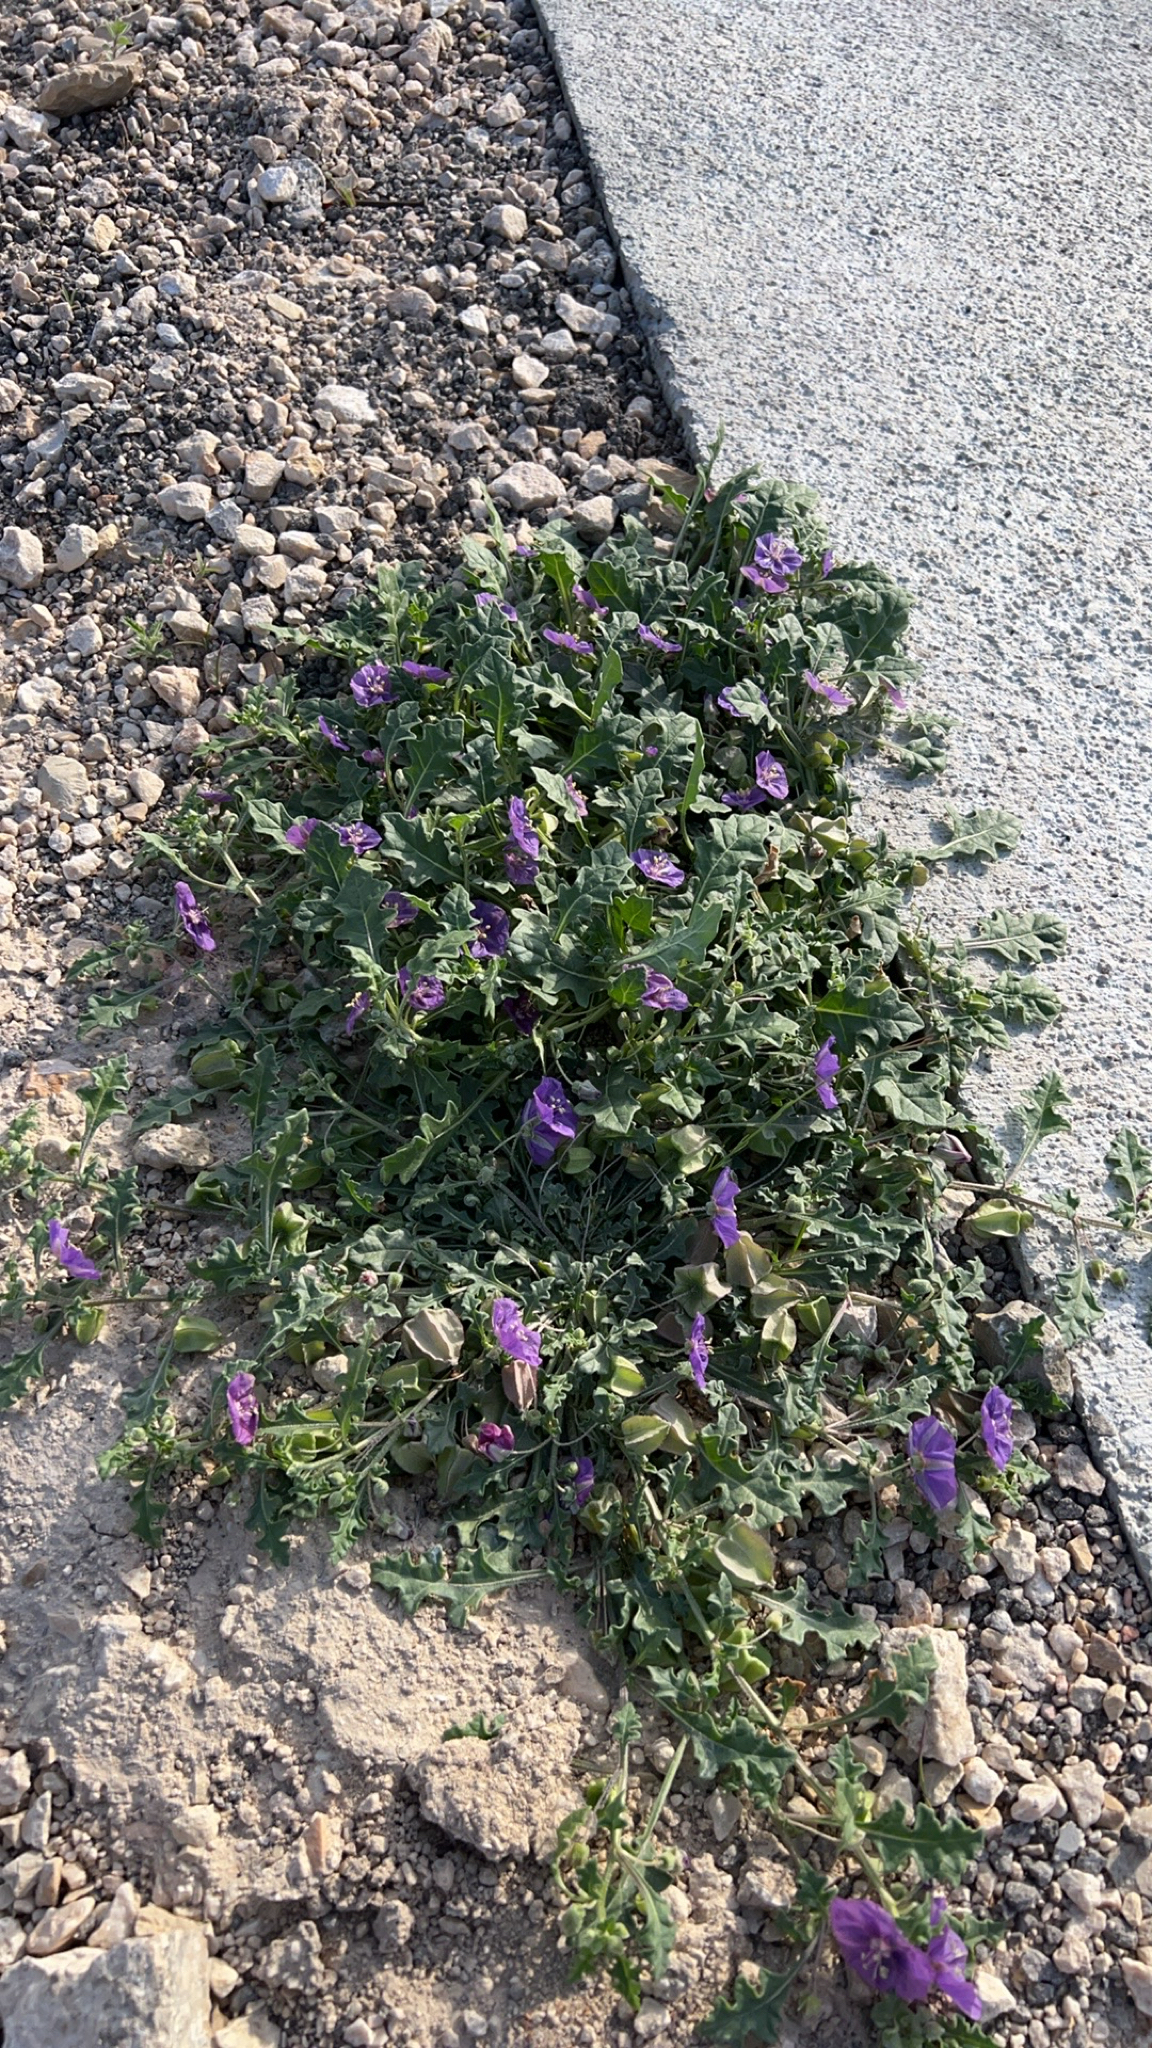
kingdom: Plantae
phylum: Tracheophyta
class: Magnoliopsida
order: Solanales
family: Solanaceae
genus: Quincula
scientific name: Quincula lobata
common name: Purple-ground-cherry
